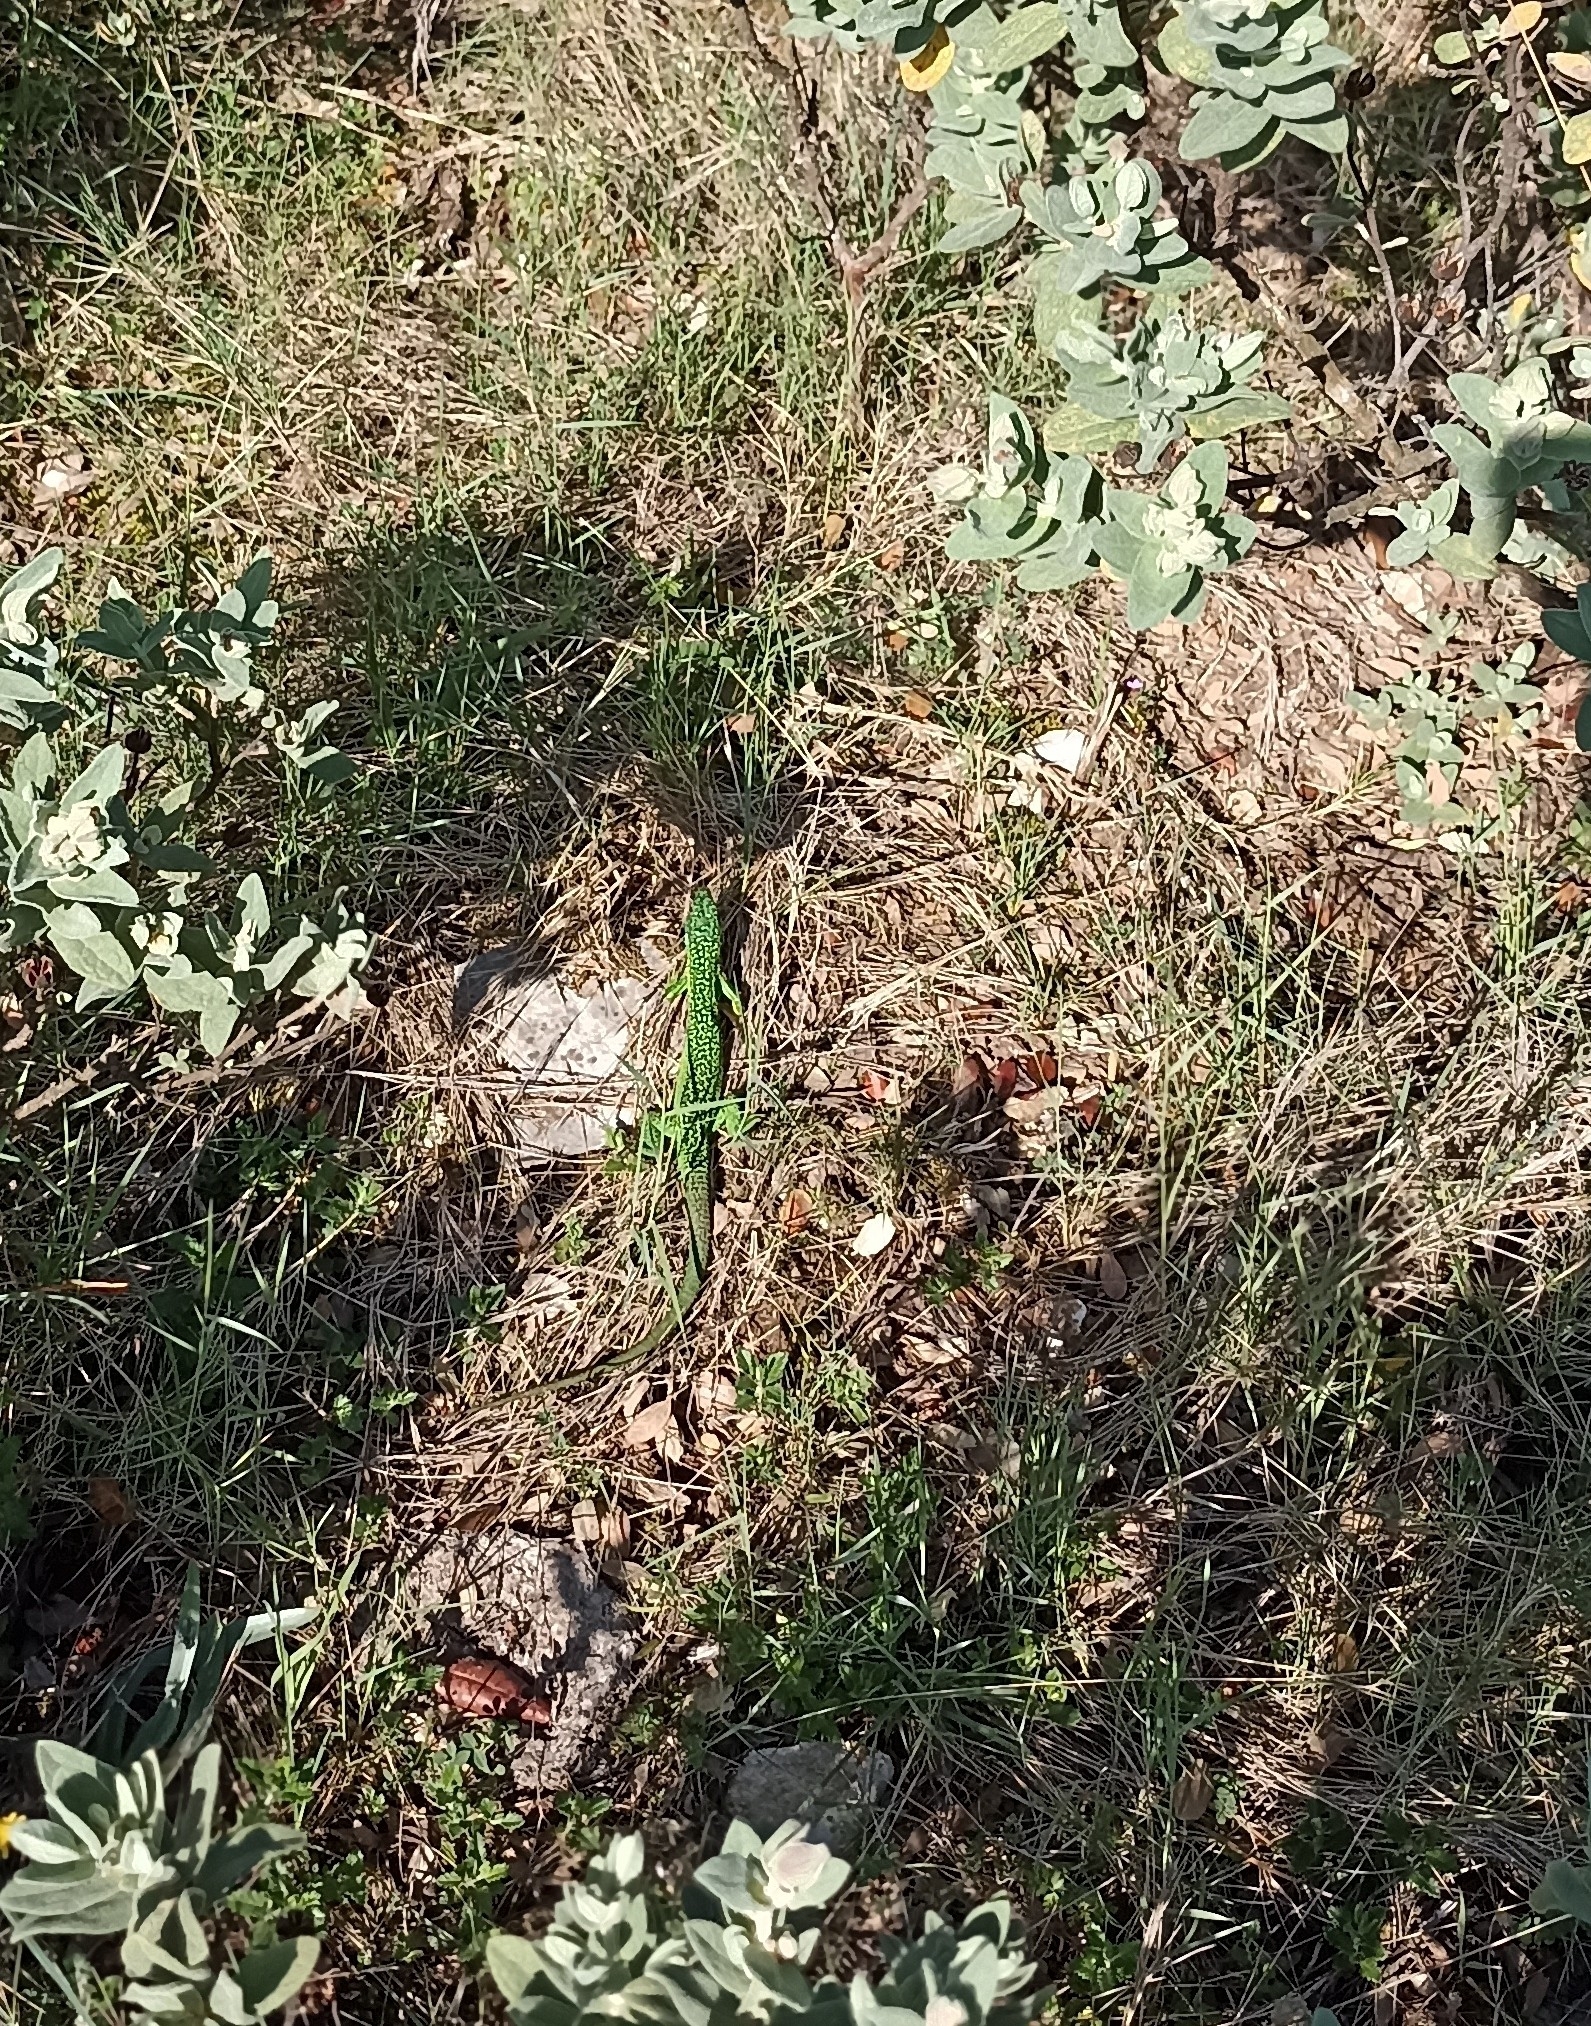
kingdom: Animalia
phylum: Chordata
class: Squamata
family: Lacertidae
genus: Lacerta
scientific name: Lacerta bilineata
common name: Western green lizard
